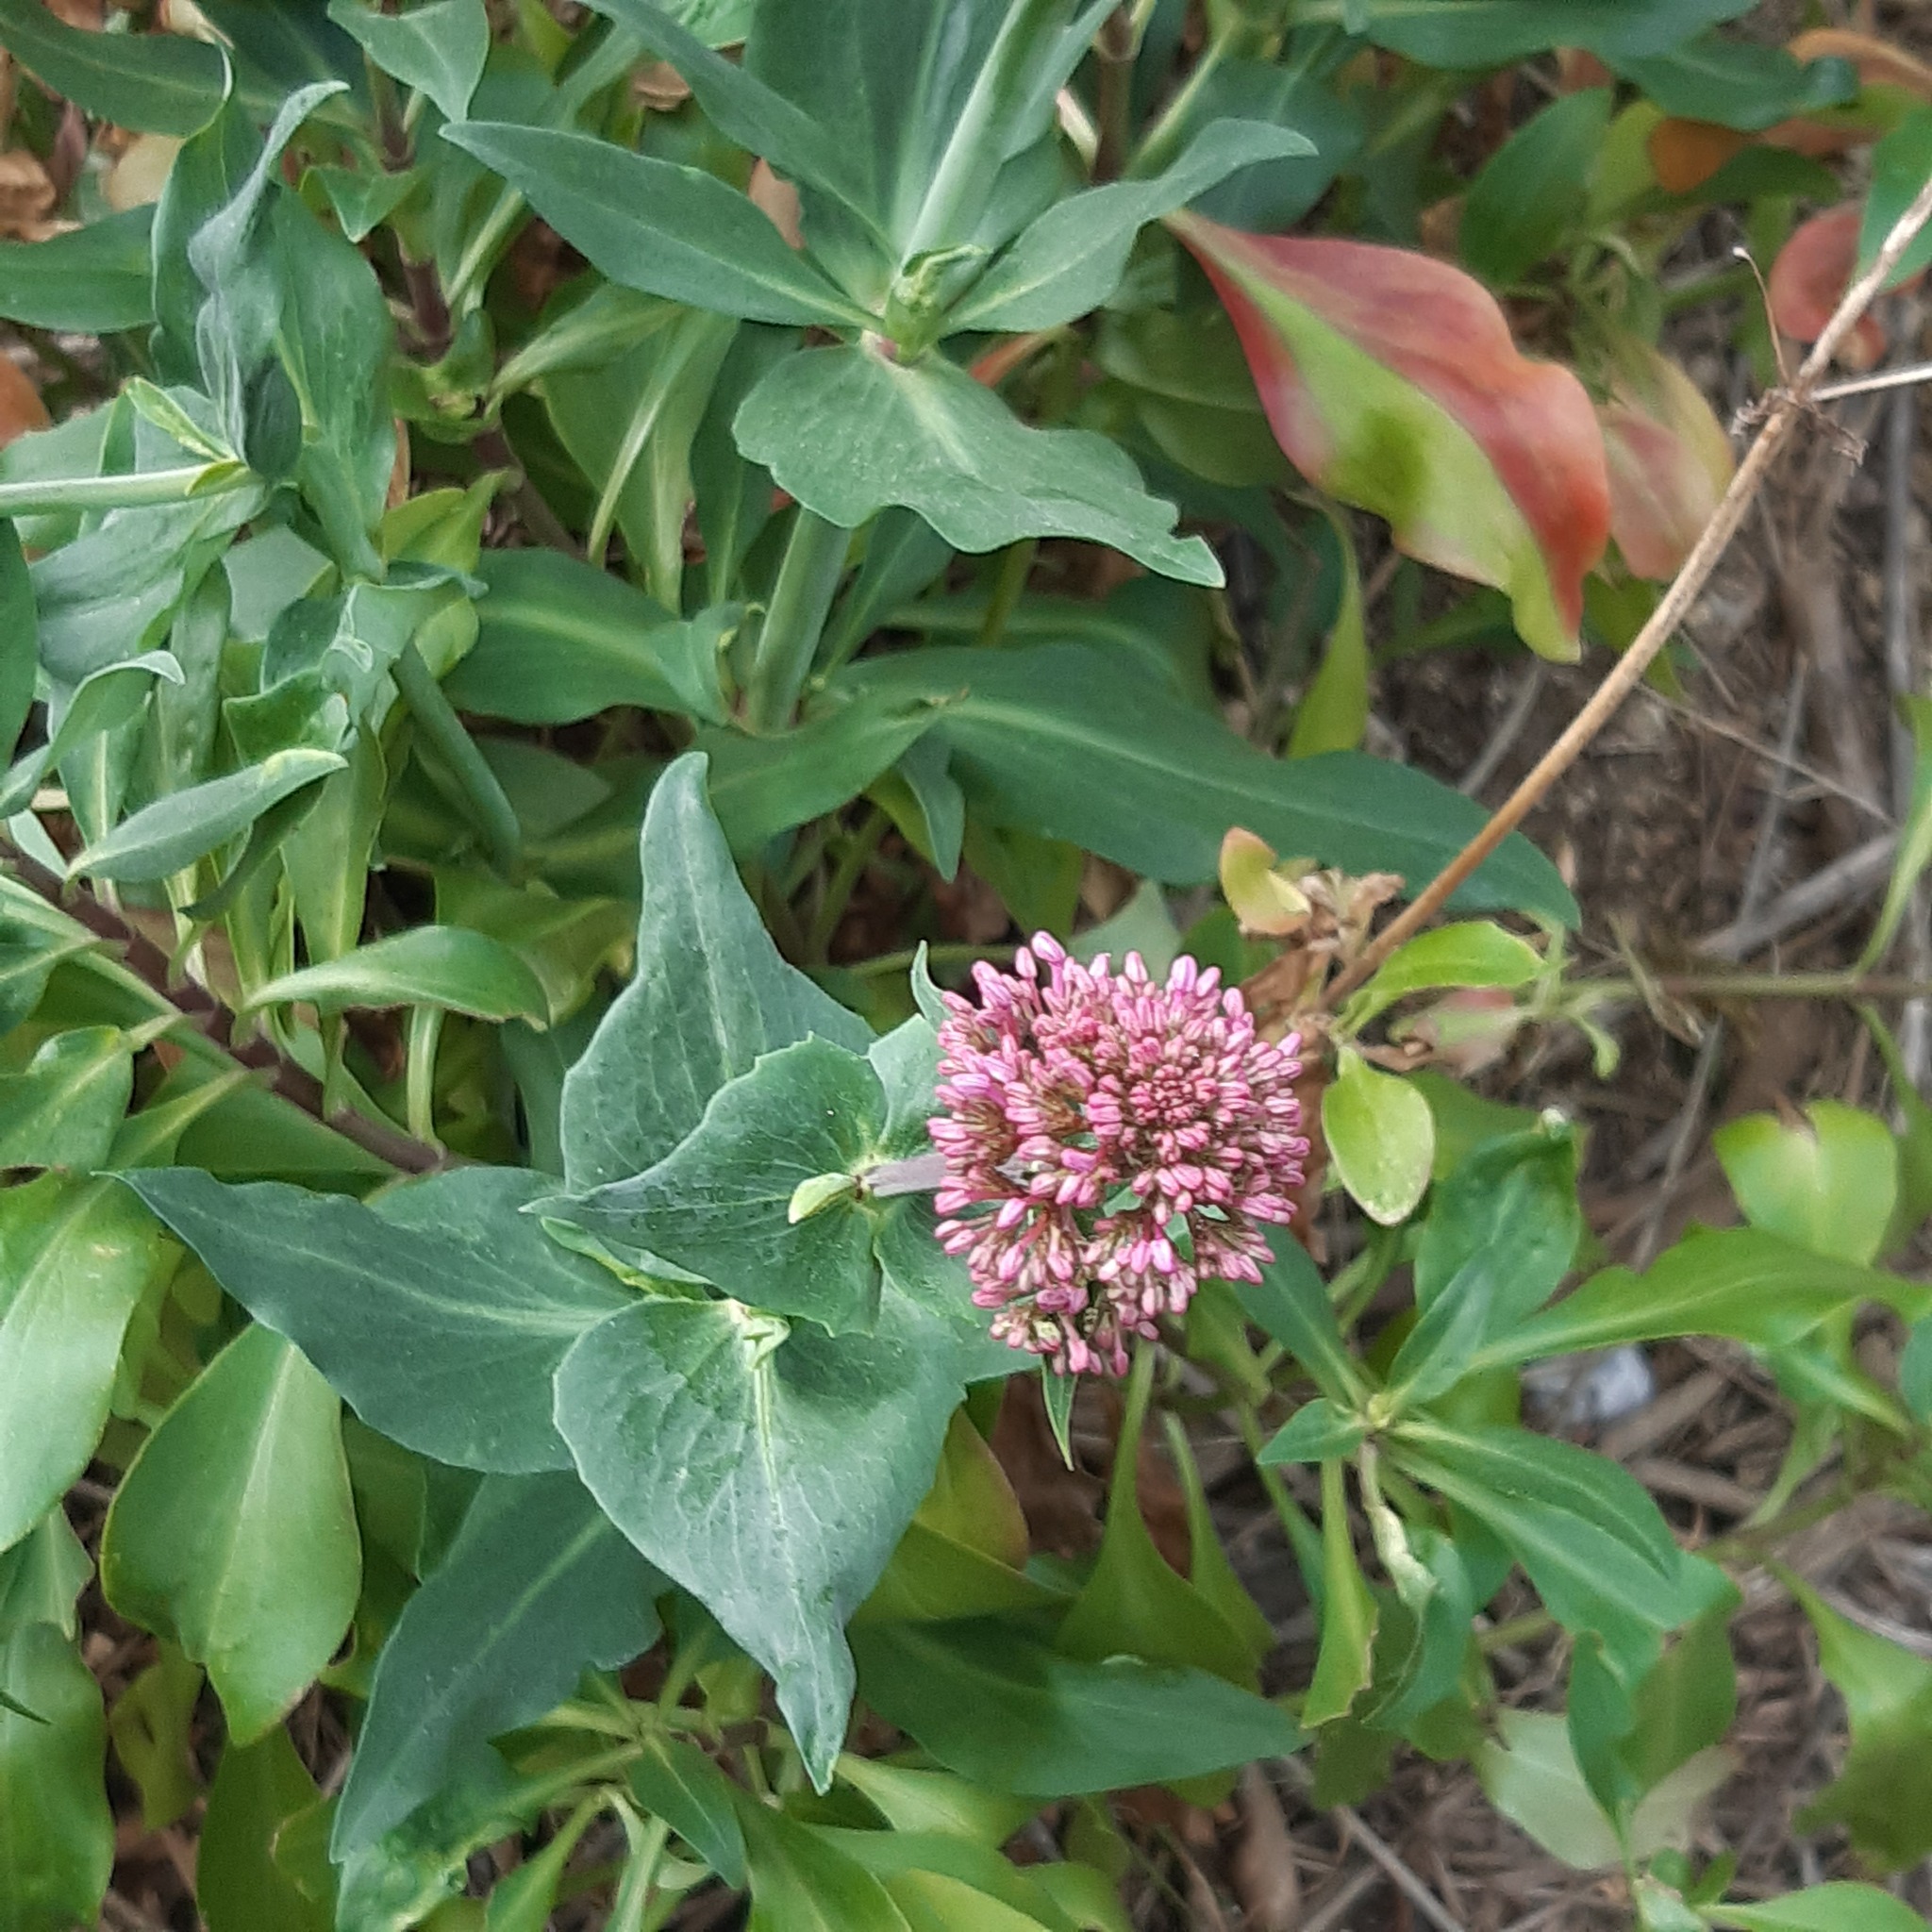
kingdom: Plantae
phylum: Tracheophyta
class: Magnoliopsida
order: Dipsacales
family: Caprifoliaceae
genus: Centranthus
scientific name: Centranthus ruber
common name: Red valerian
